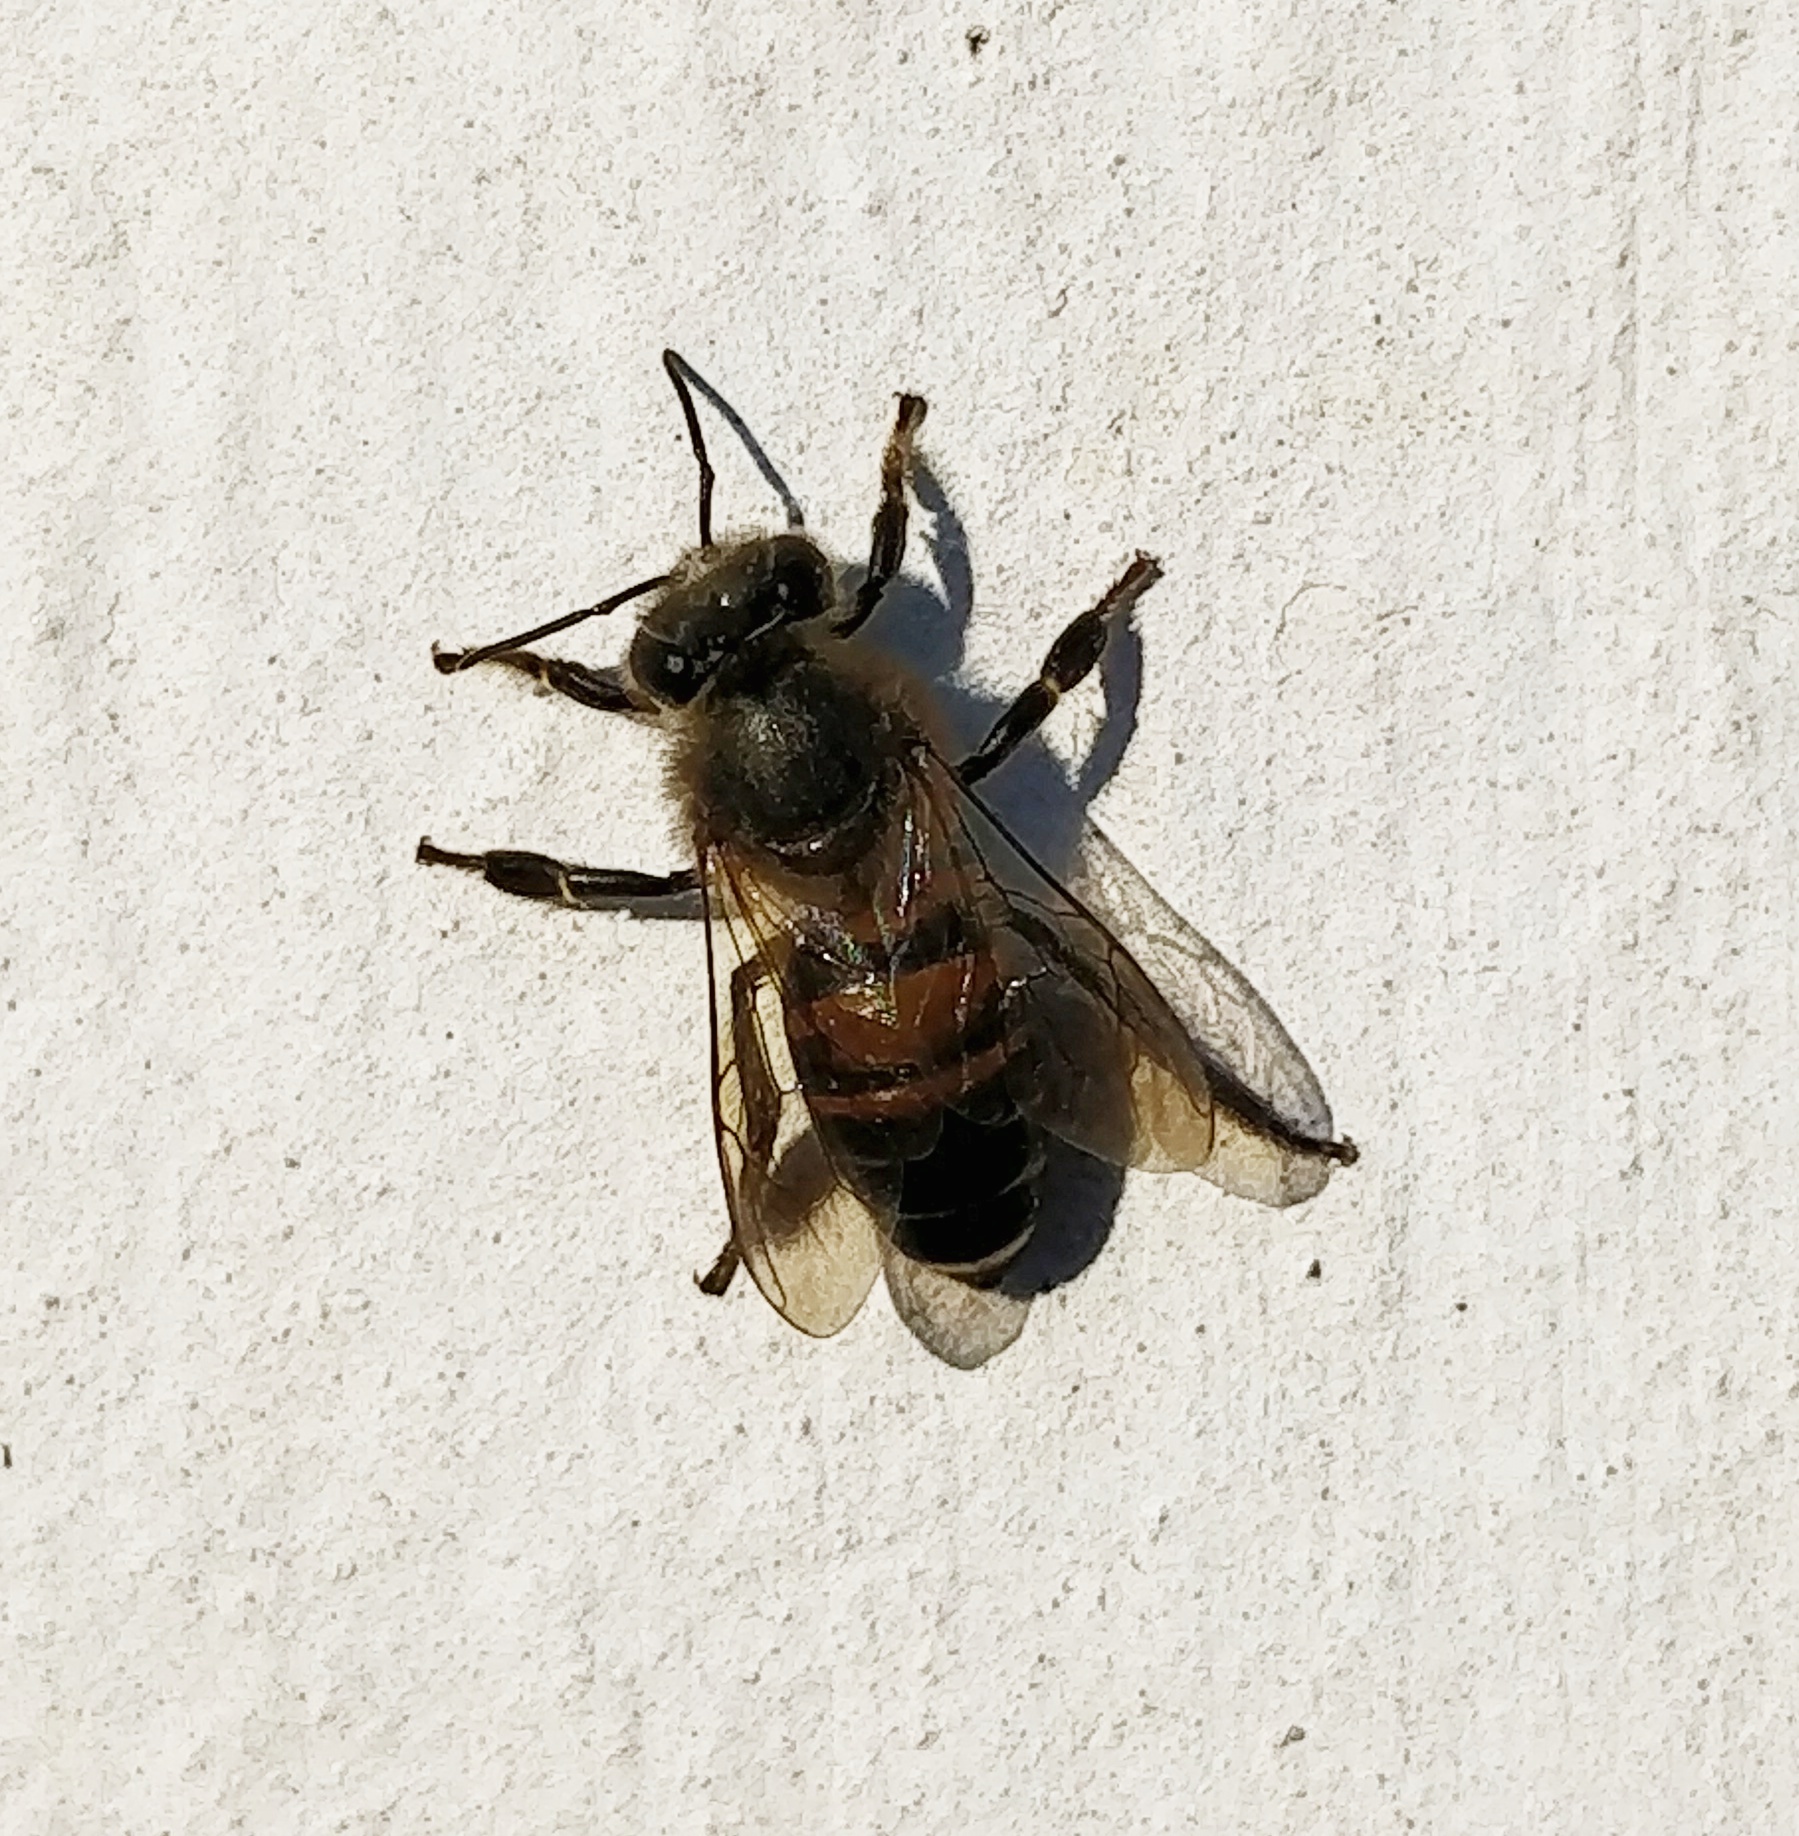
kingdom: Animalia
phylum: Arthropoda
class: Insecta
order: Hymenoptera
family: Apidae
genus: Apis
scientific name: Apis cerana
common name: Honey bee
